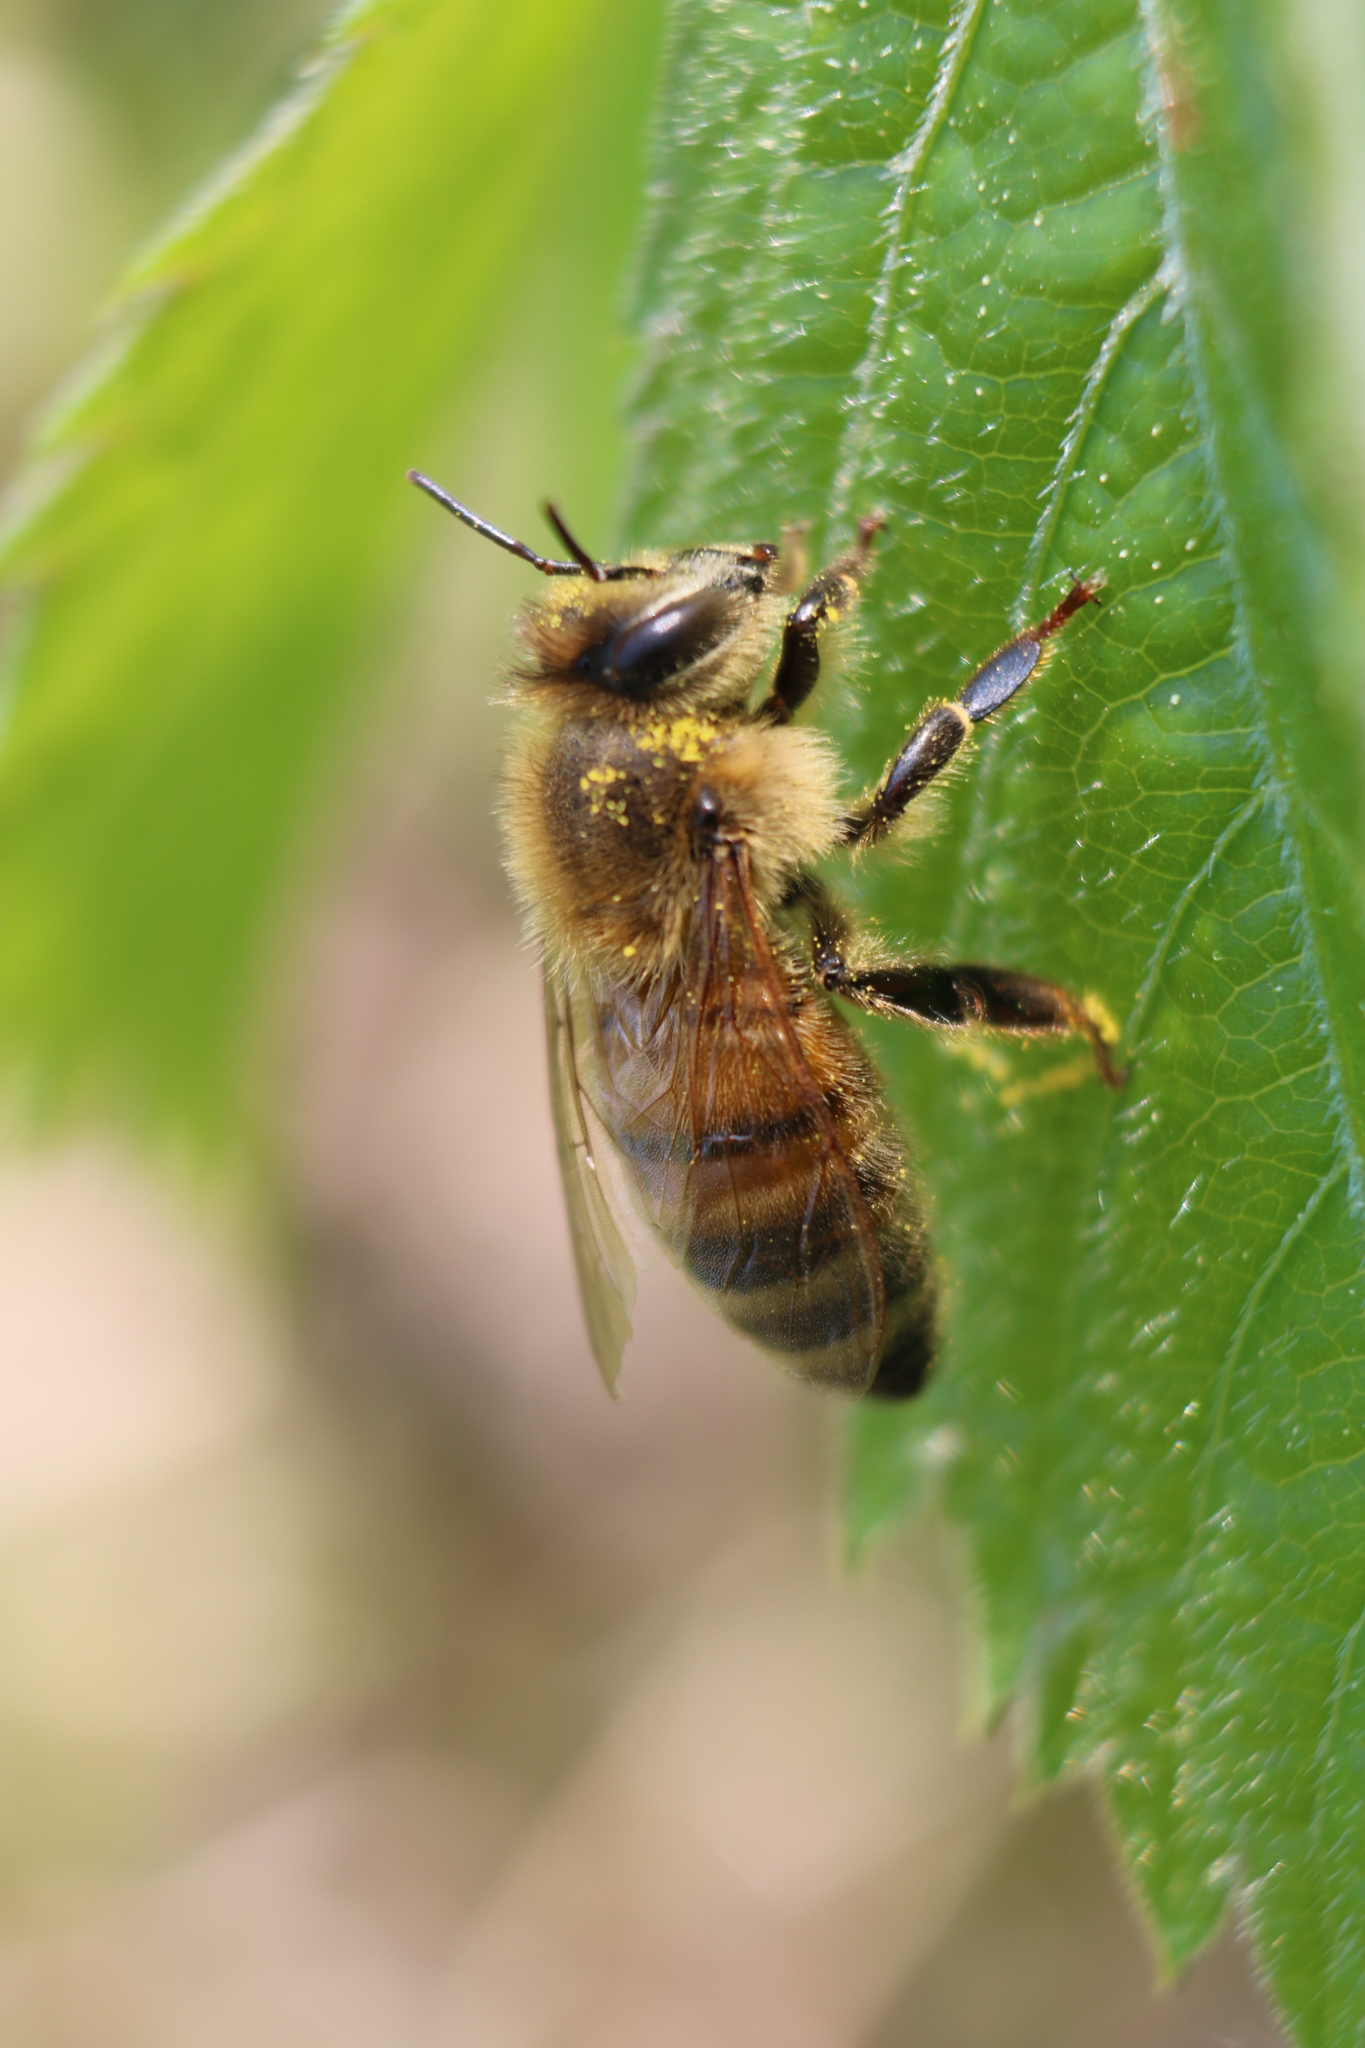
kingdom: Animalia
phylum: Arthropoda
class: Insecta
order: Hymenoptera
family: Apidae
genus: Apis
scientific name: Apis mellifera
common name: Honey bee
